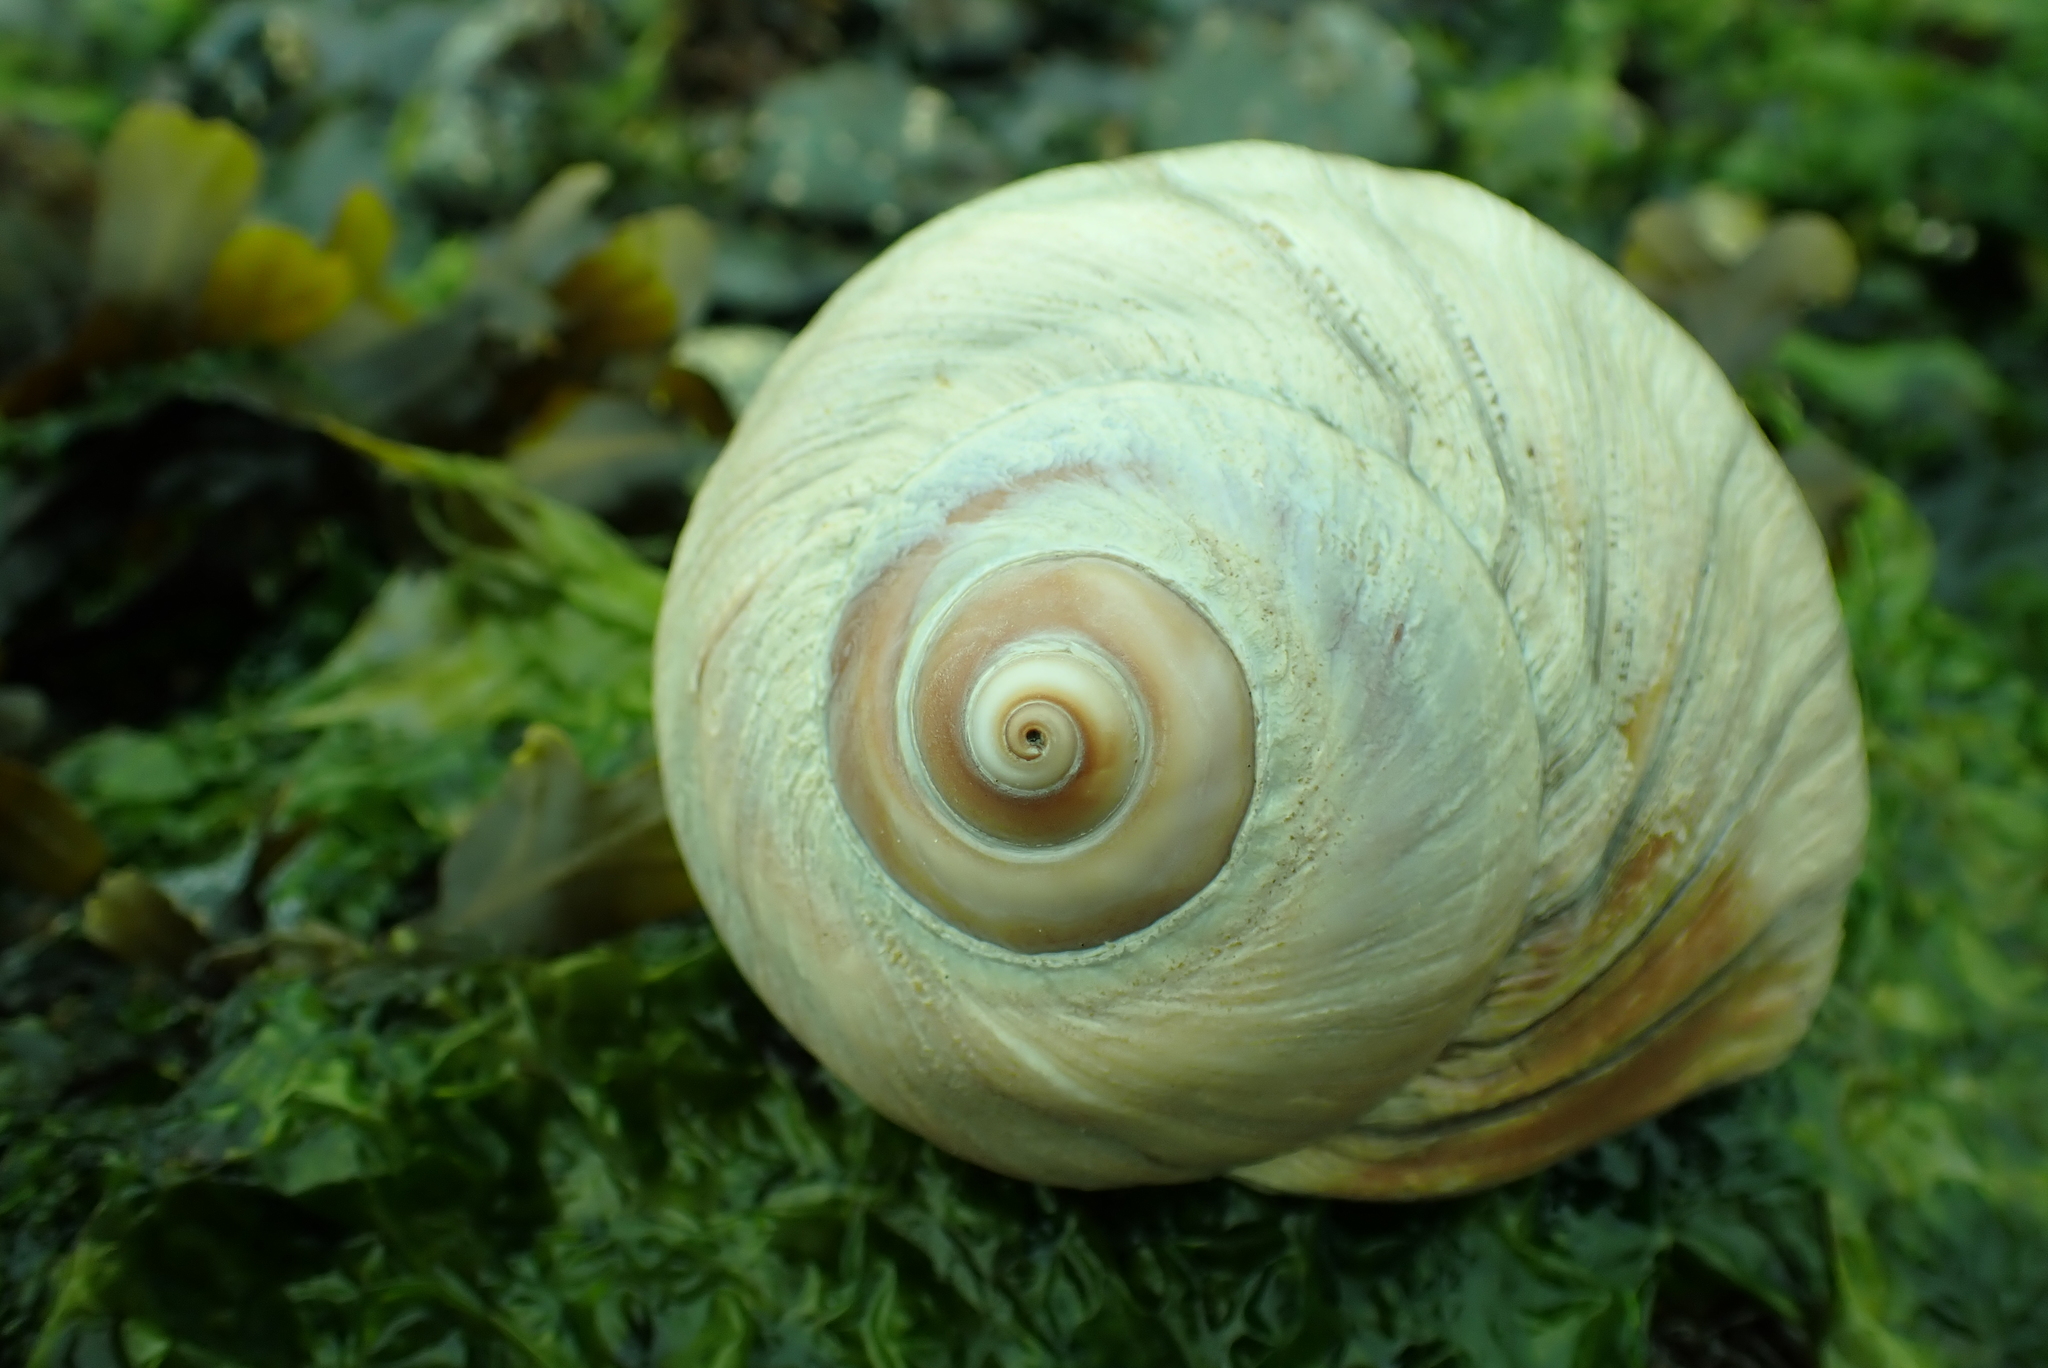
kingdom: Animalia
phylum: Mollusca
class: Gastropoda
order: Littorinimorpha
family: Naticidae
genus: Neverita
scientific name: Neverita lewisii
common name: Lewis' moonsnail
